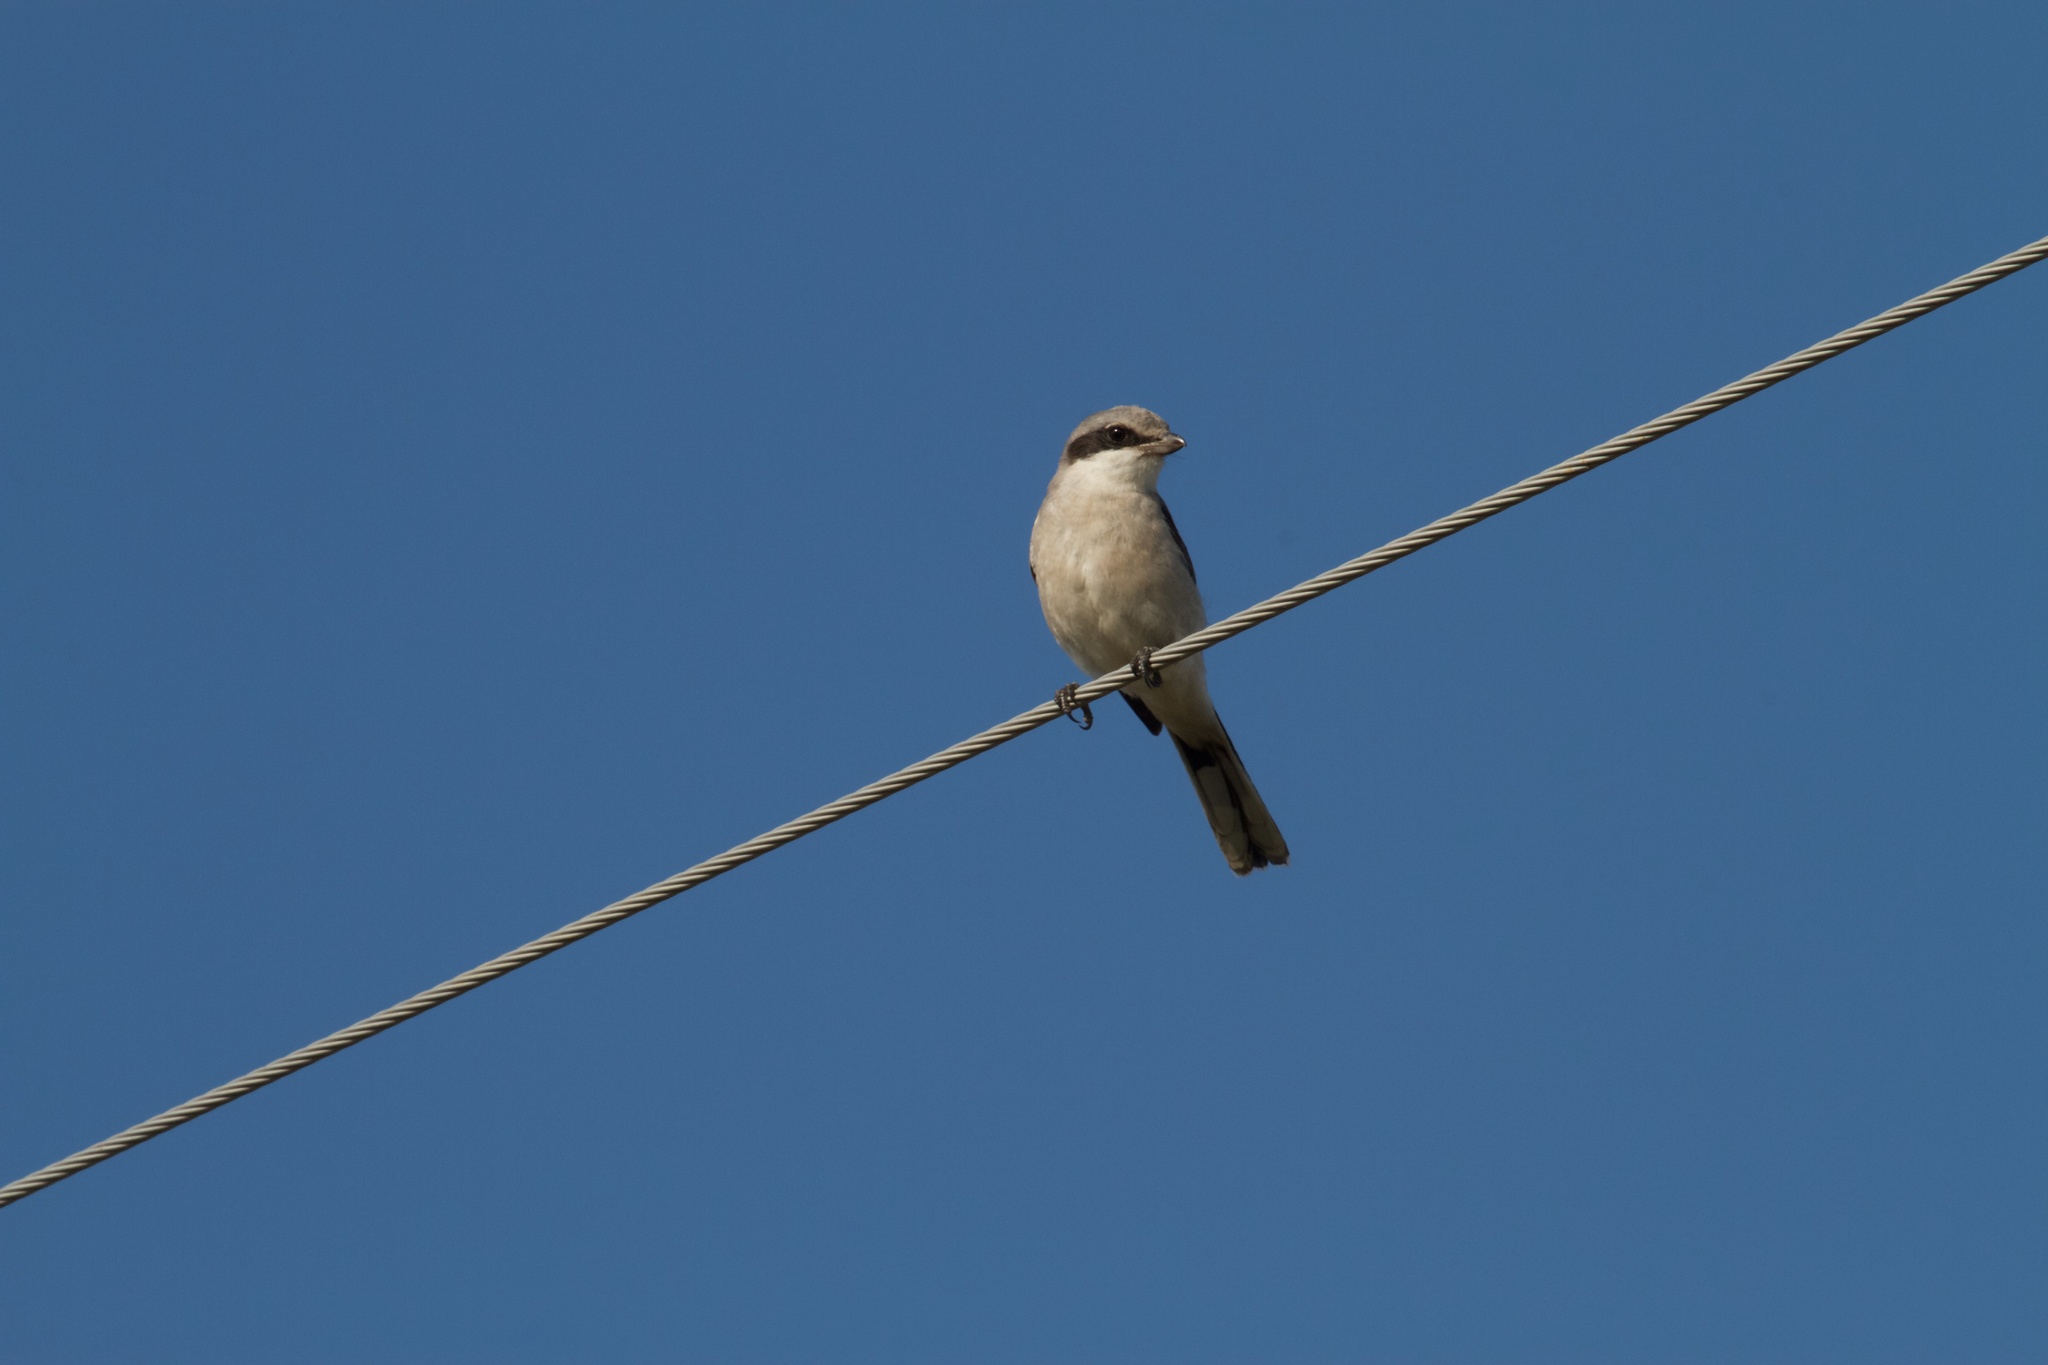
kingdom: Animalia
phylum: Chordata
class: Aves
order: Passeriformes
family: Laniidae
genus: Lanius
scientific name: Lanius ludovicianus
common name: Loggerhead shrike
